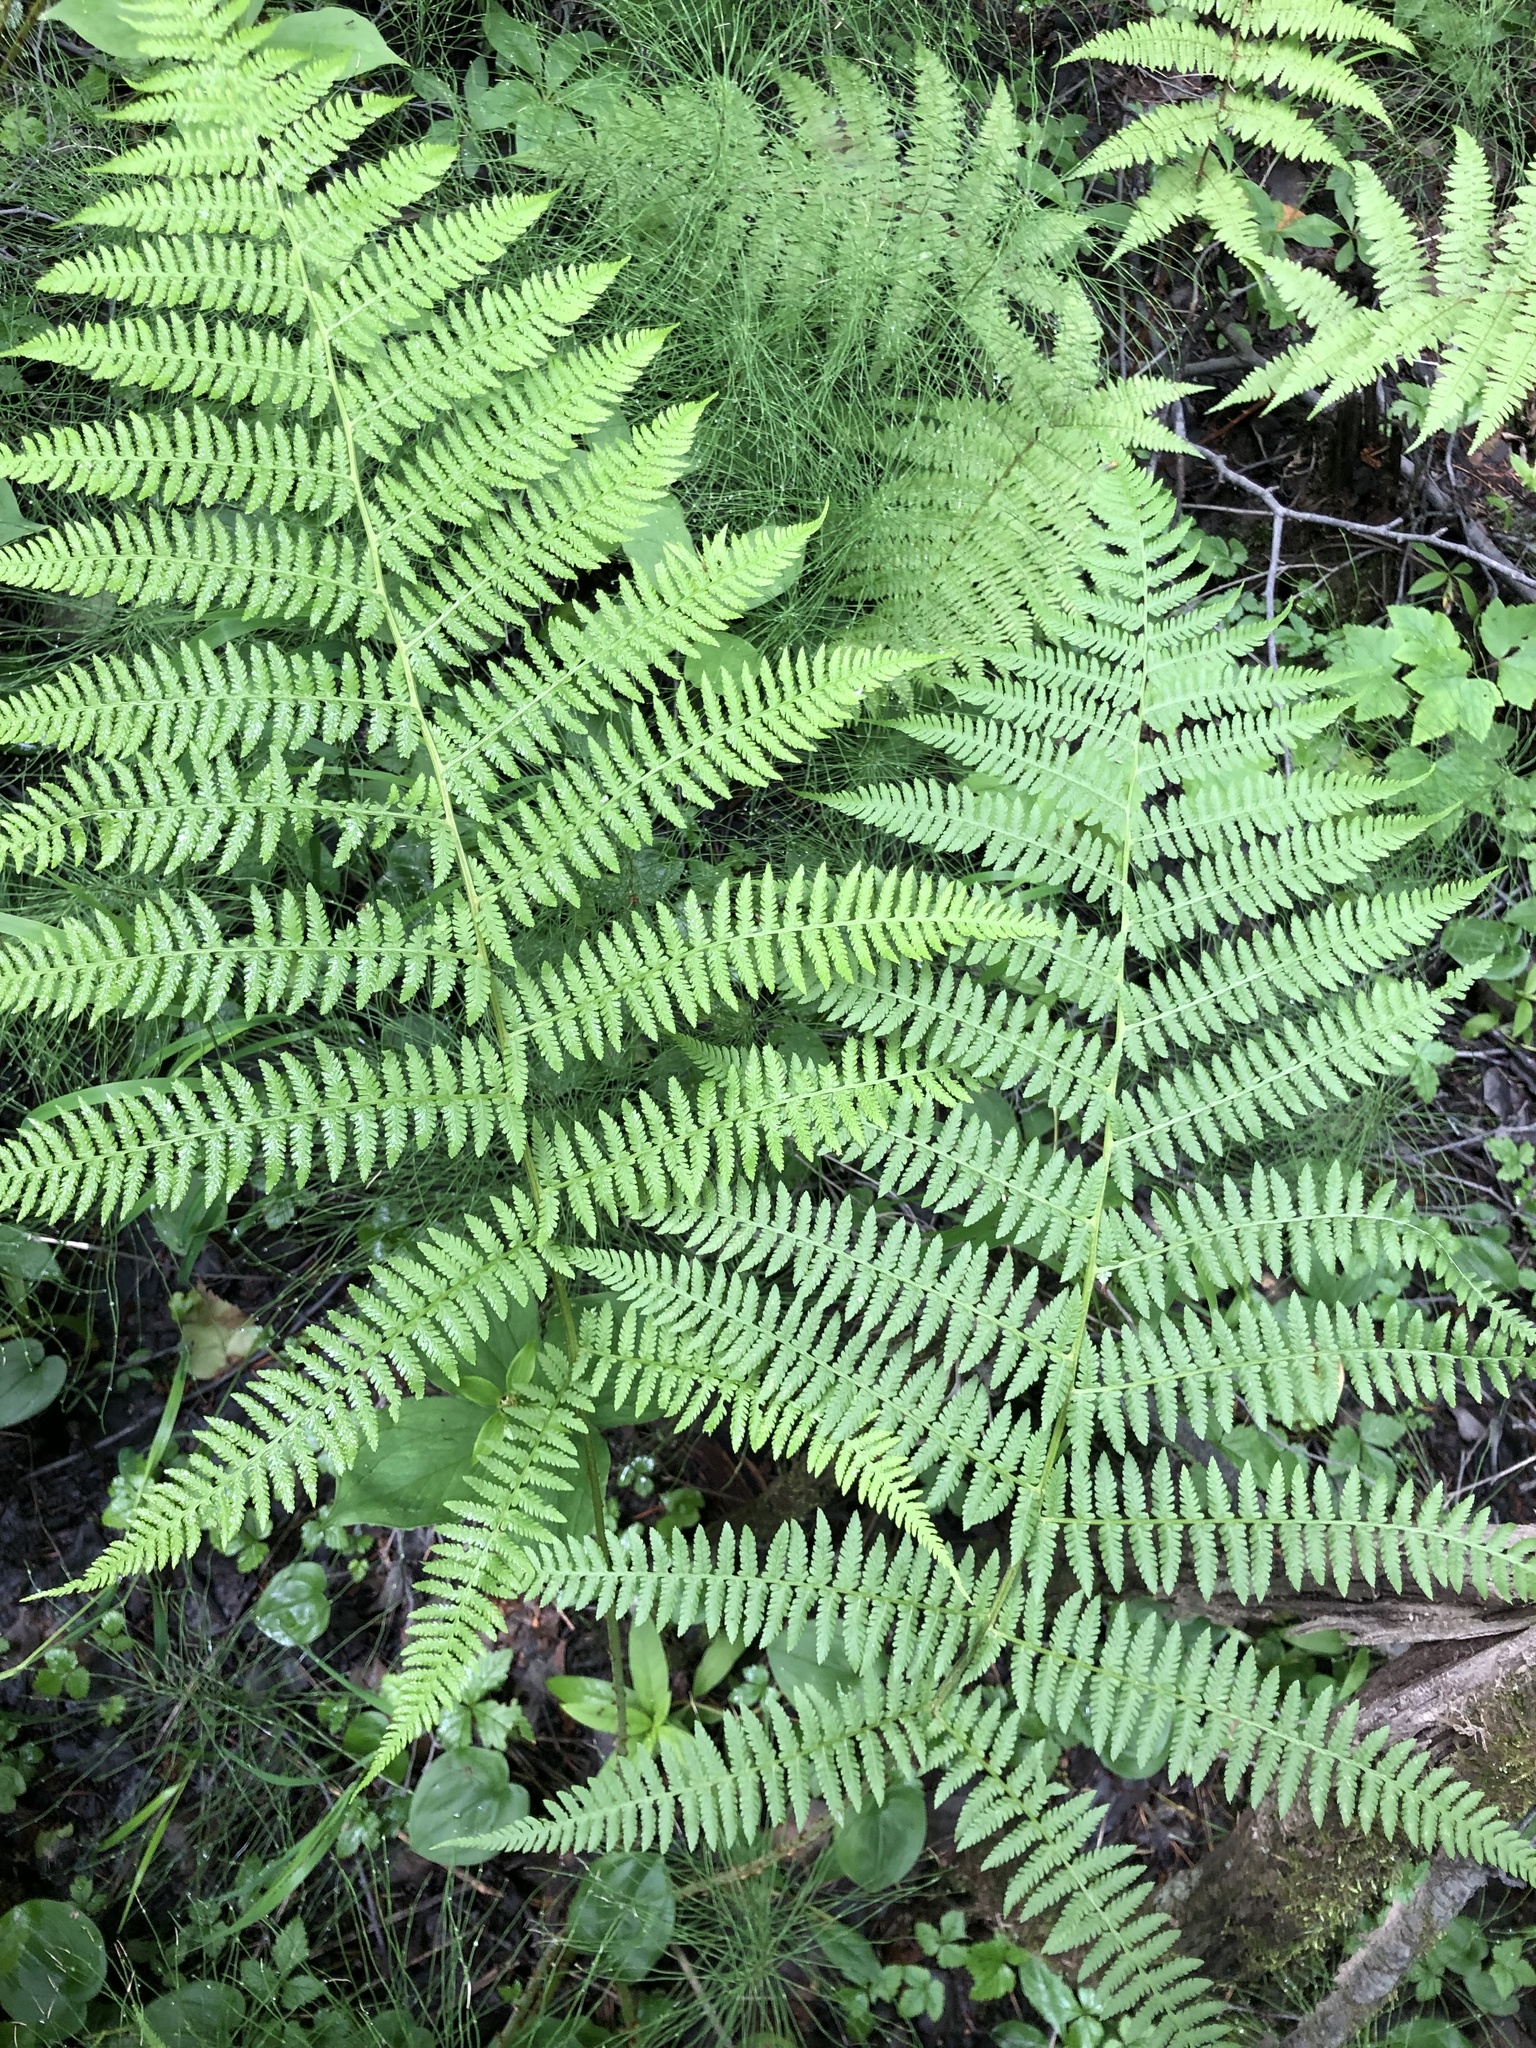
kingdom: Plantae
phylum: Tracheophyta
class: Polypodiopsida
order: Polypodiales
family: Athyriaceae
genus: Athyrium
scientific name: Athyrium filix-femina
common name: Lady fern
